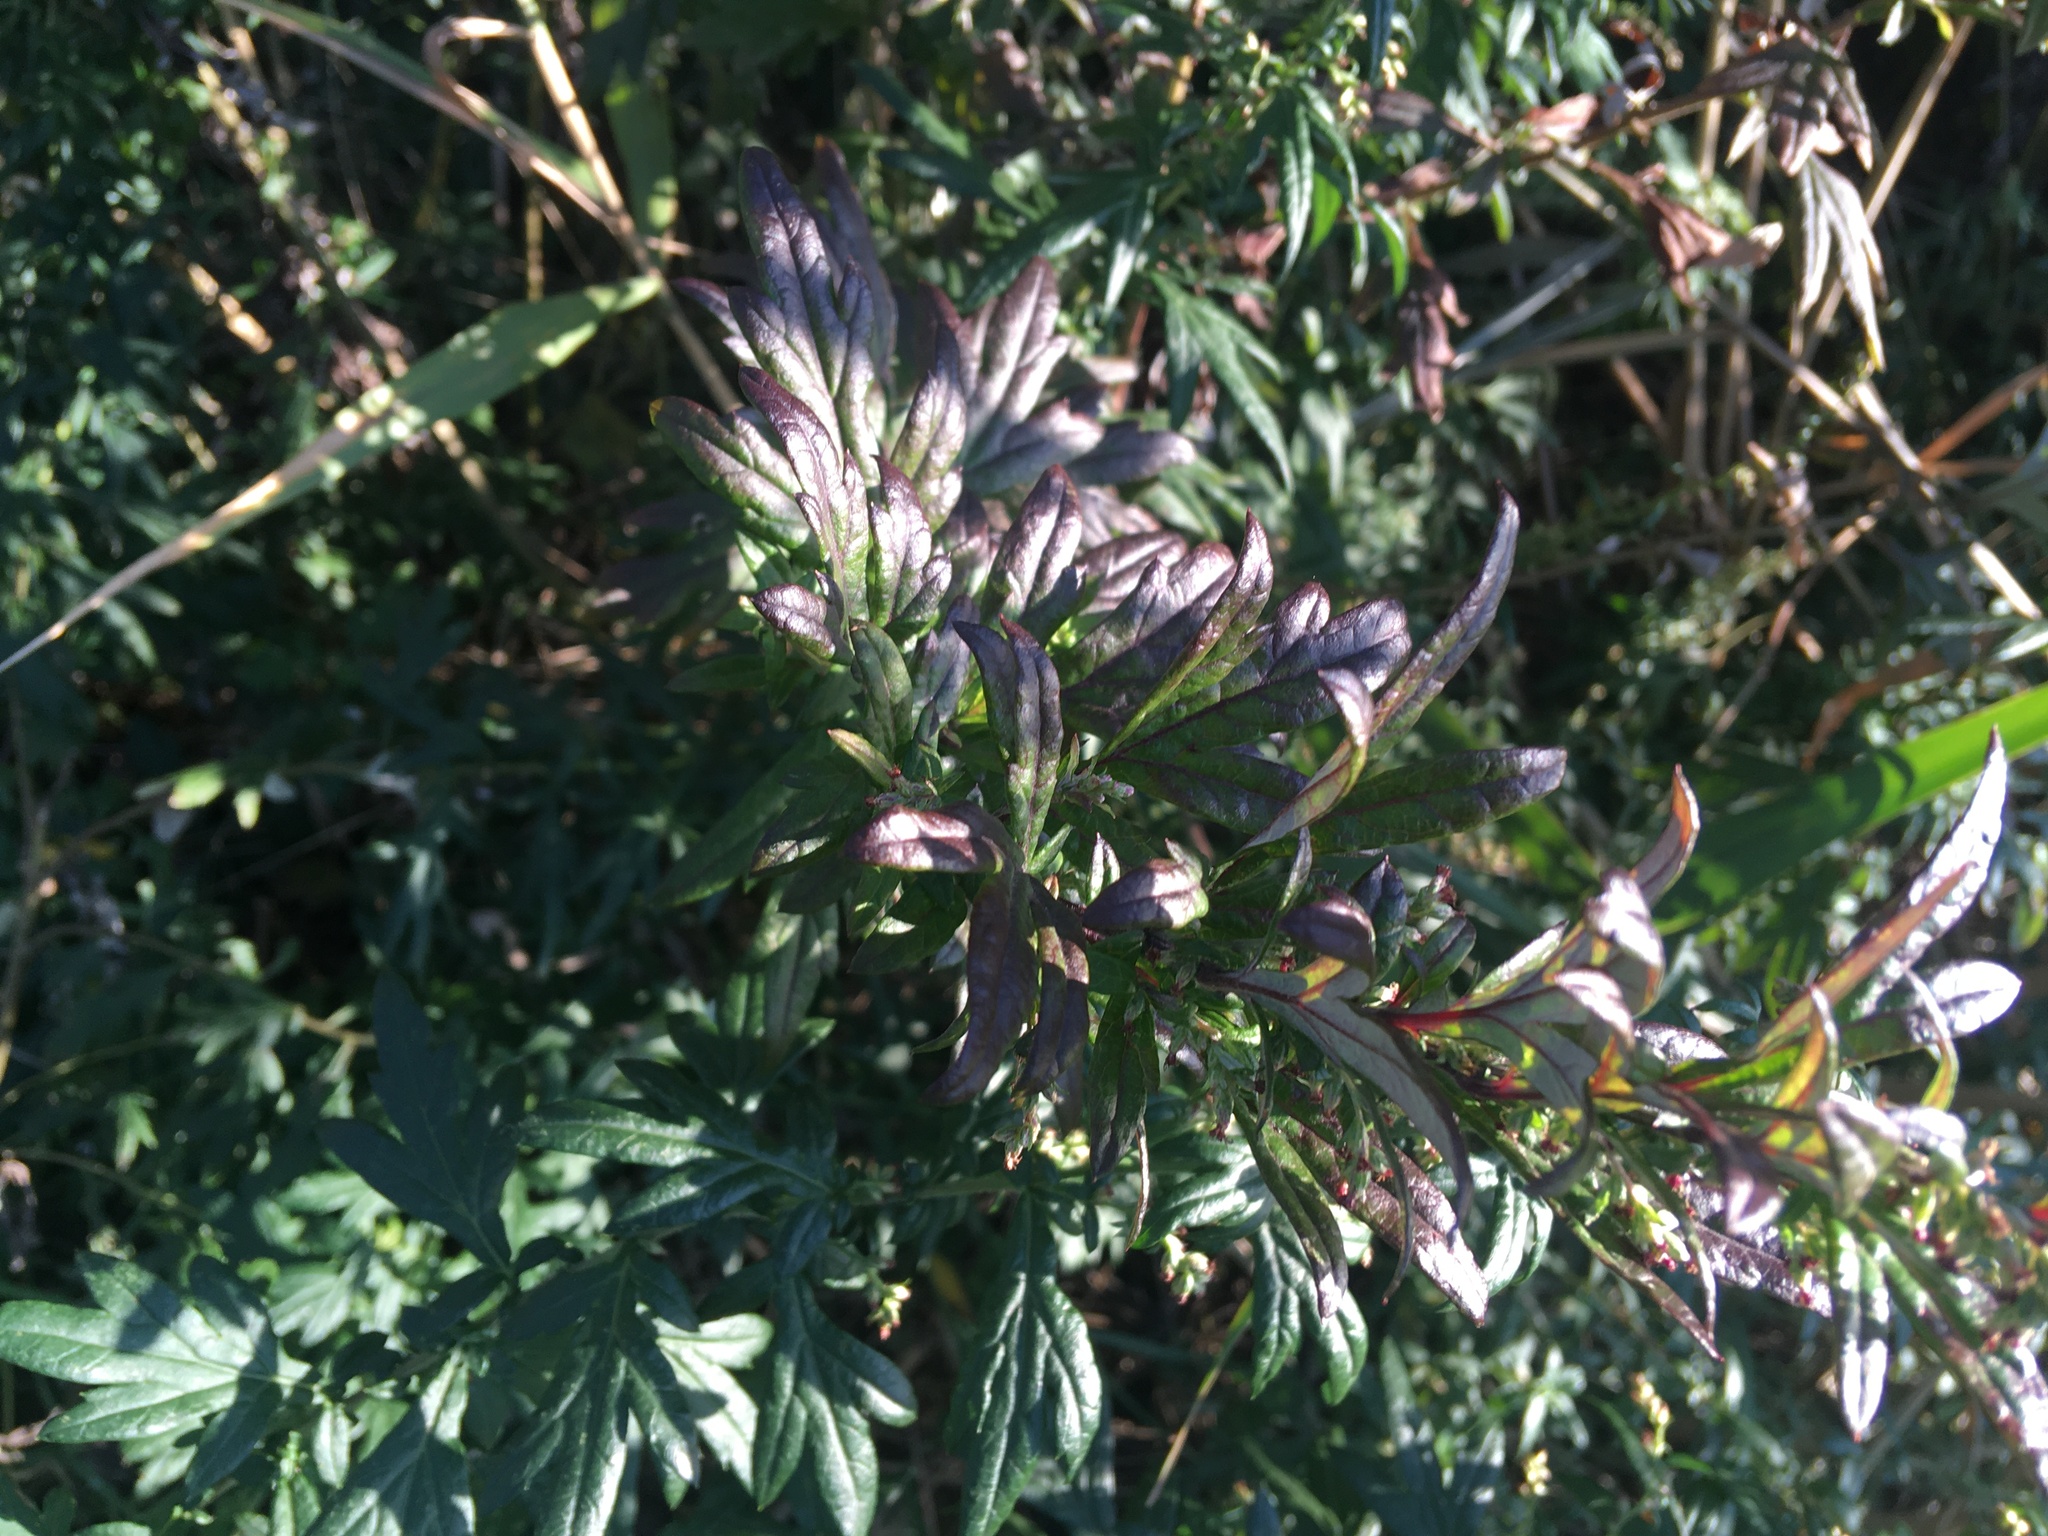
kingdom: Plantae
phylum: Tracheophyta
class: Magnoliopsida
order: Asterales
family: Asteraceae
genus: Artemisia
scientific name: Artemisia vulgaris
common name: Mugwort
